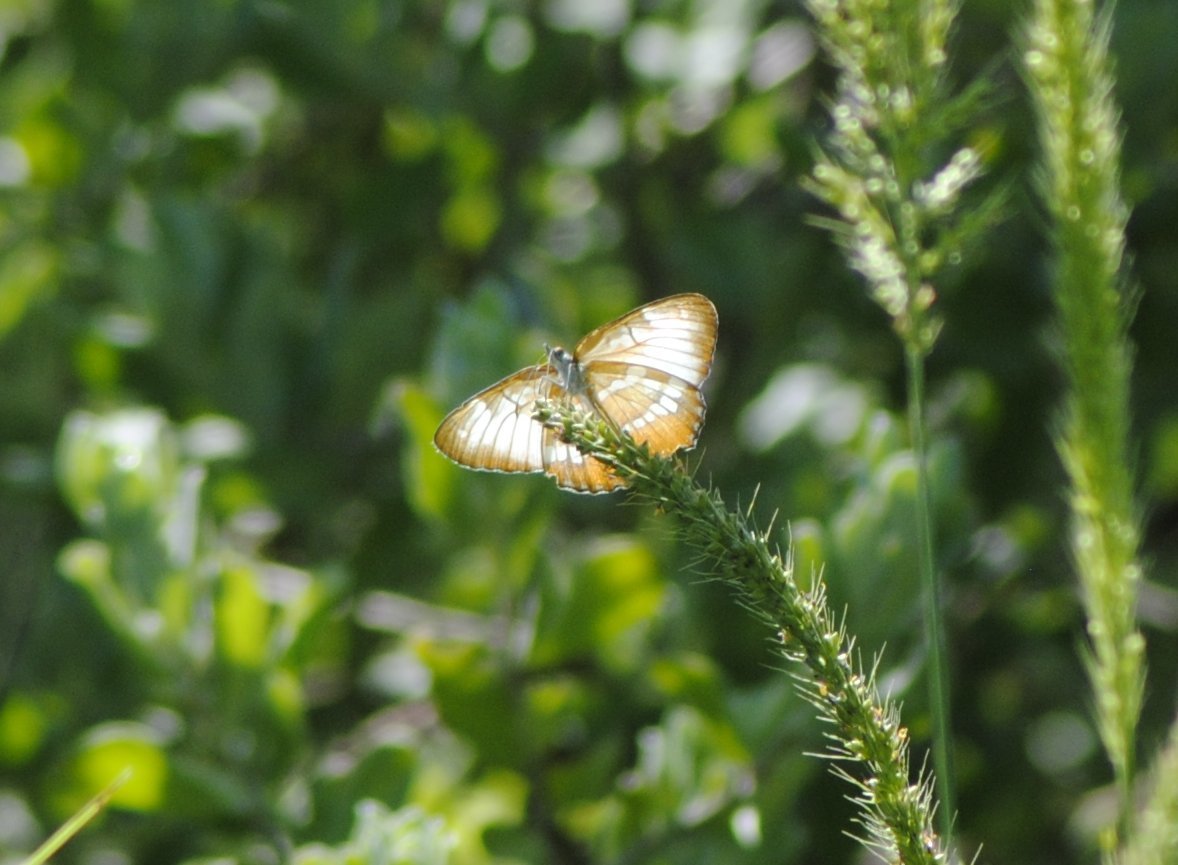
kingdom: Animalia
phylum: Arthropoda
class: Insecta
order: Lepidoptera
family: Nymphalidae
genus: Mestra
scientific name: Mestra amymone
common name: Common mestra
